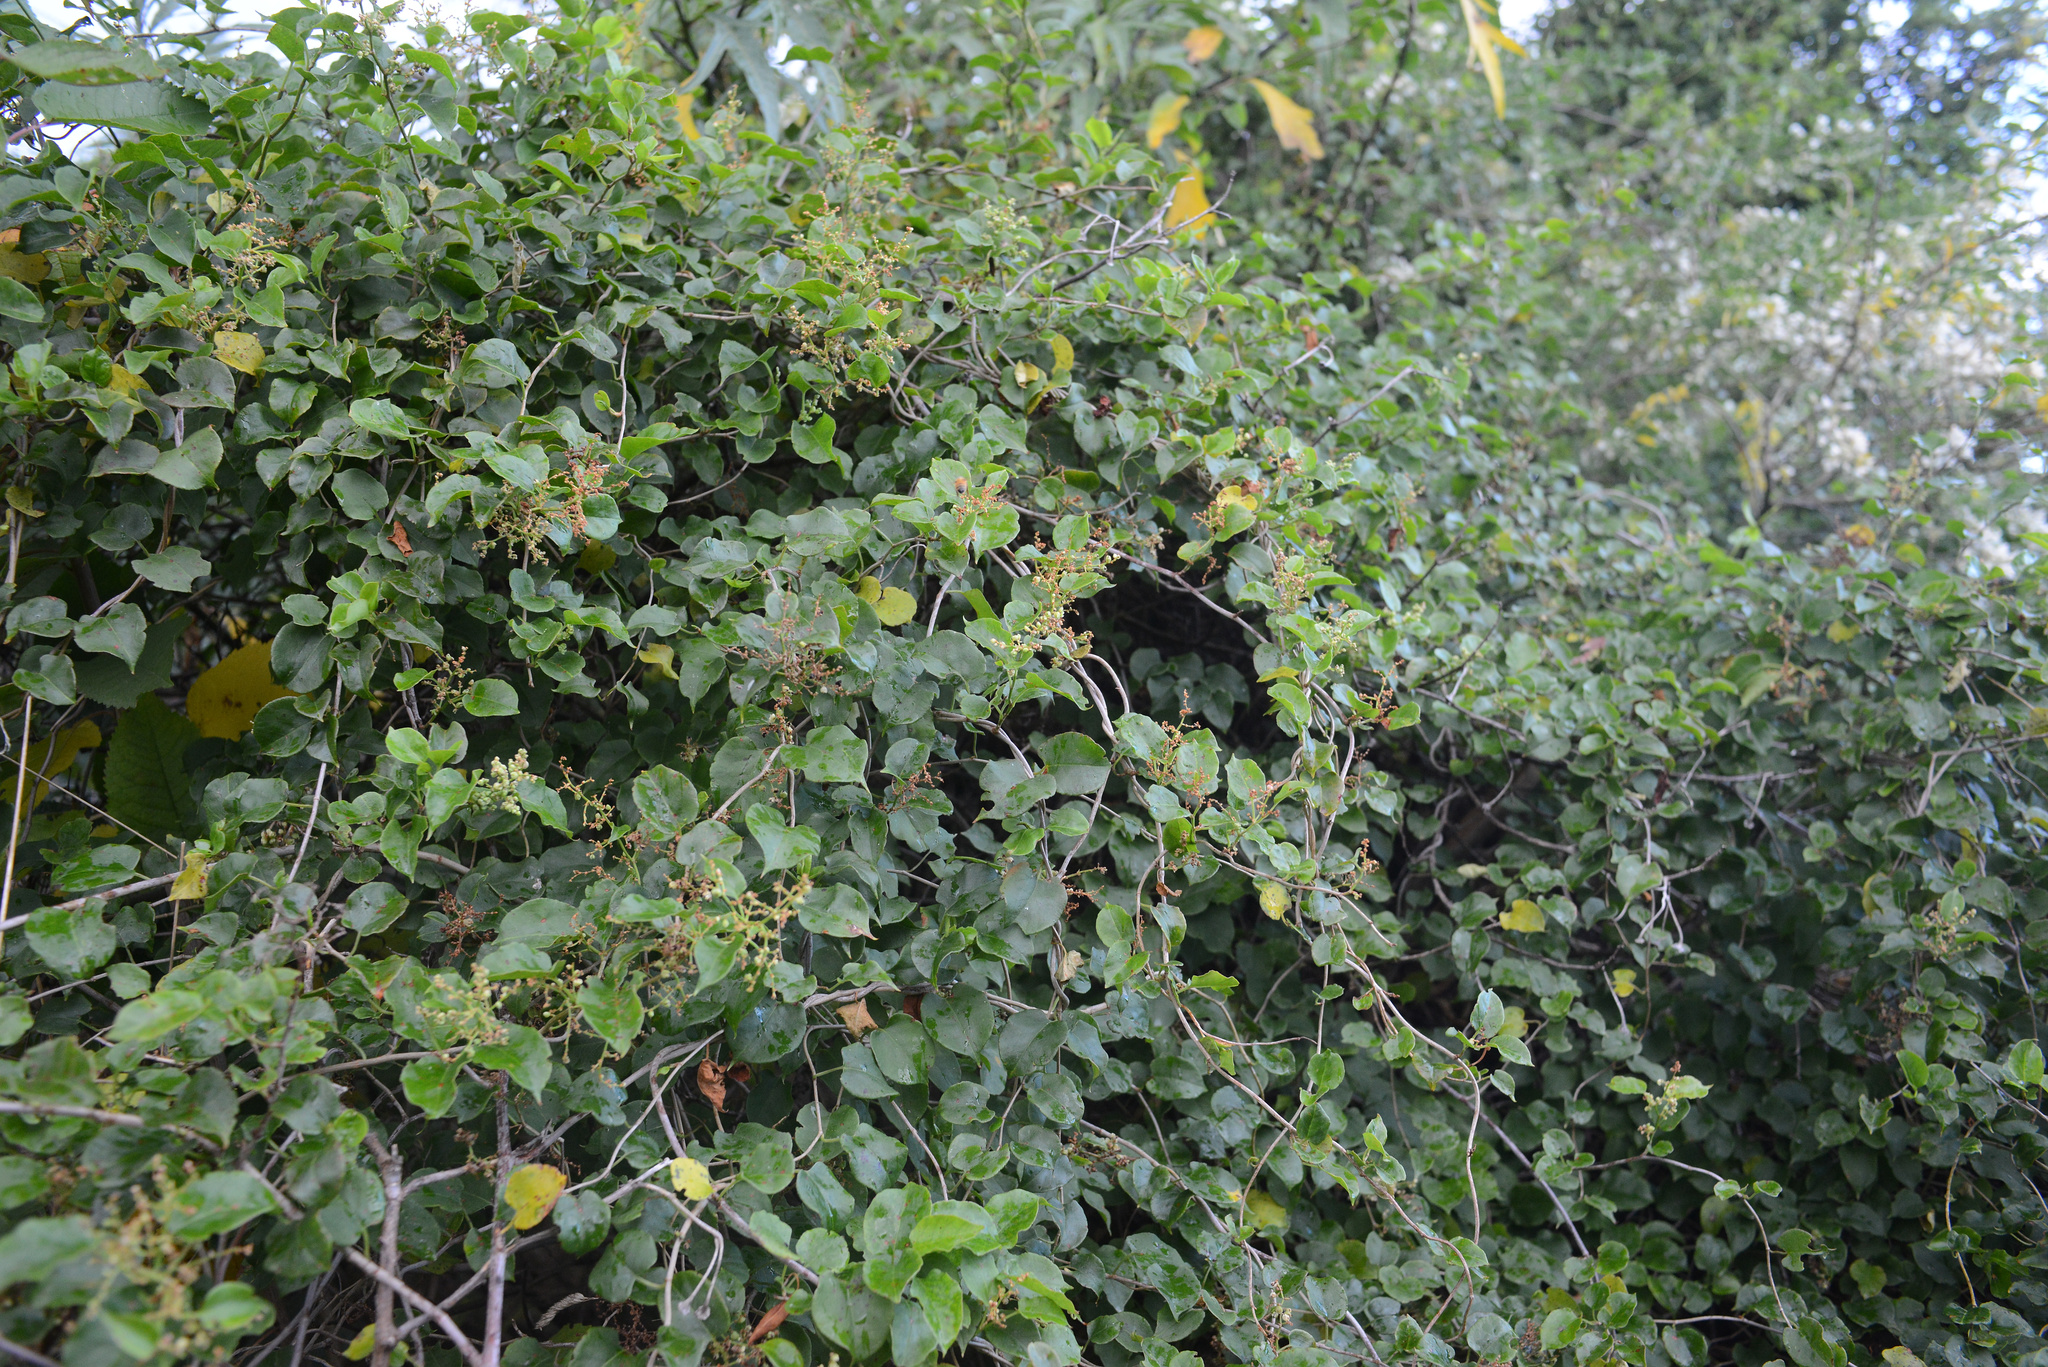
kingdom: Plantae
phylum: Tracheophyta
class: Magnoliopsida
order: Caryophyllales
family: Polygonaceae
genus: Muehlenbeckia
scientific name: Muehlenbeckia australis
